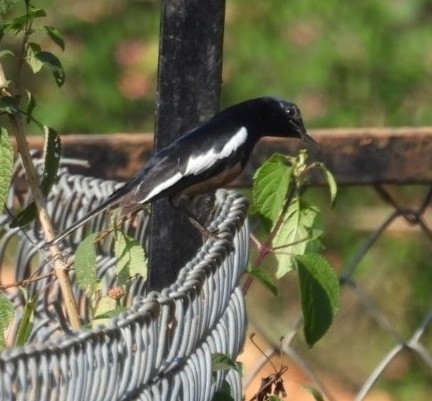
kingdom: Animalia
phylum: Chordata
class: Aves
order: Passeriformes
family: Muscicapidae
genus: Copsychus
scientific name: Copsychus saularis
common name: Oriental magpie-robin
